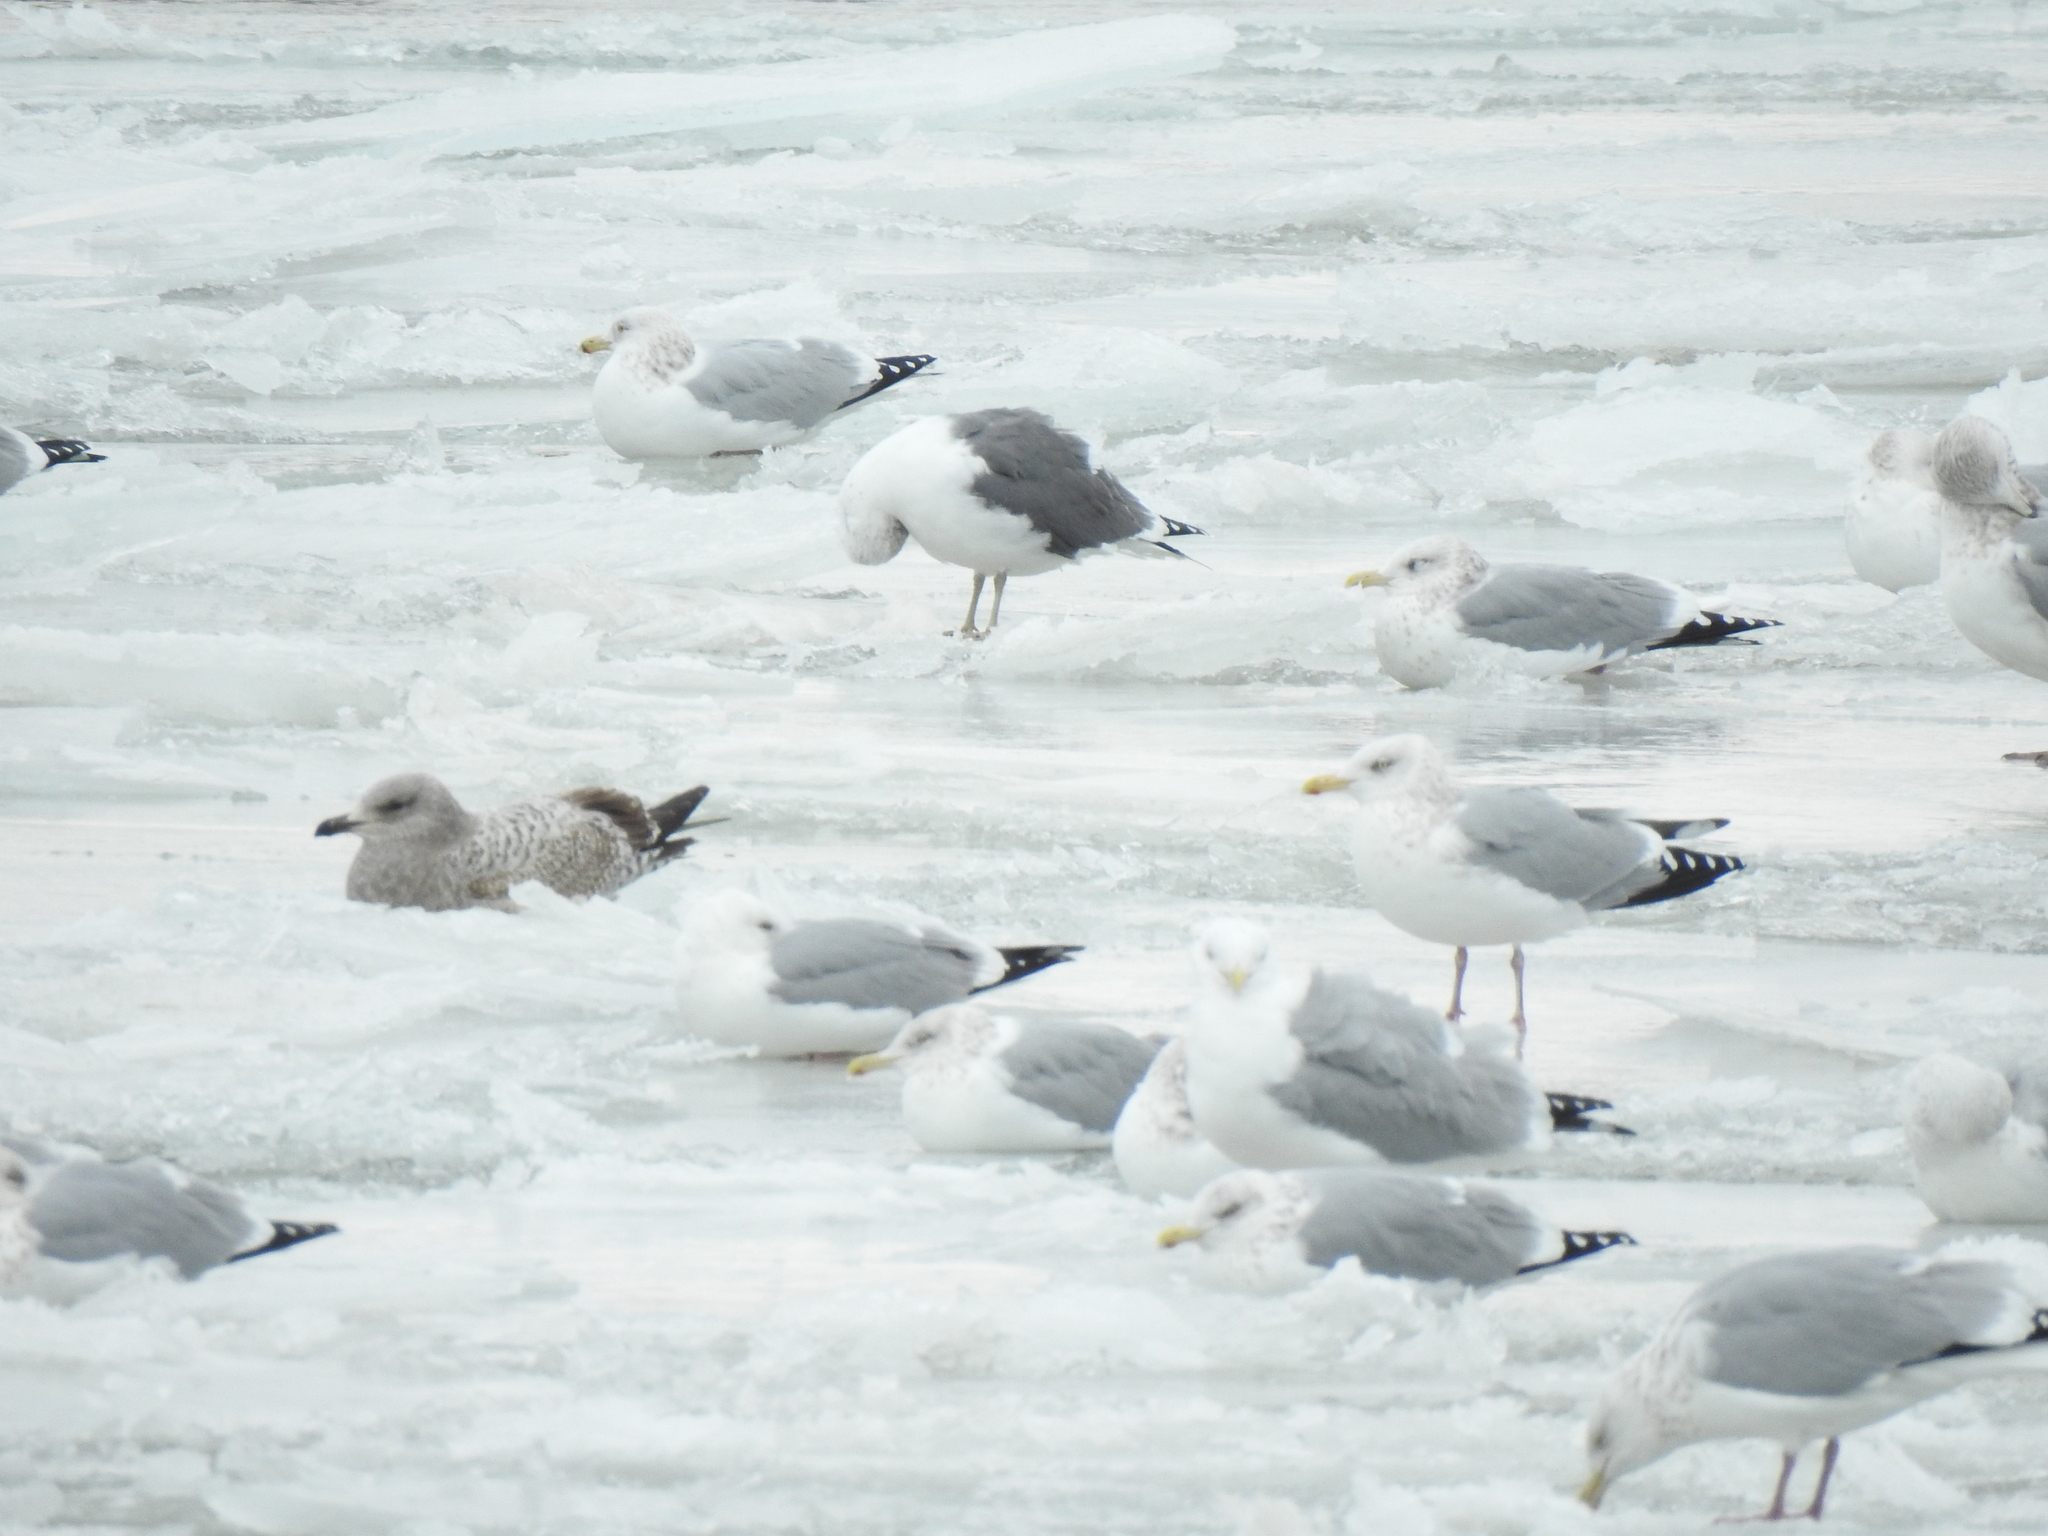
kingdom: Animalia
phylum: Chordata
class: Aves
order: Charadriiformes
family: Laridae
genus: Larus
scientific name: Larus fuscus
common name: Lesser black-backed gull
